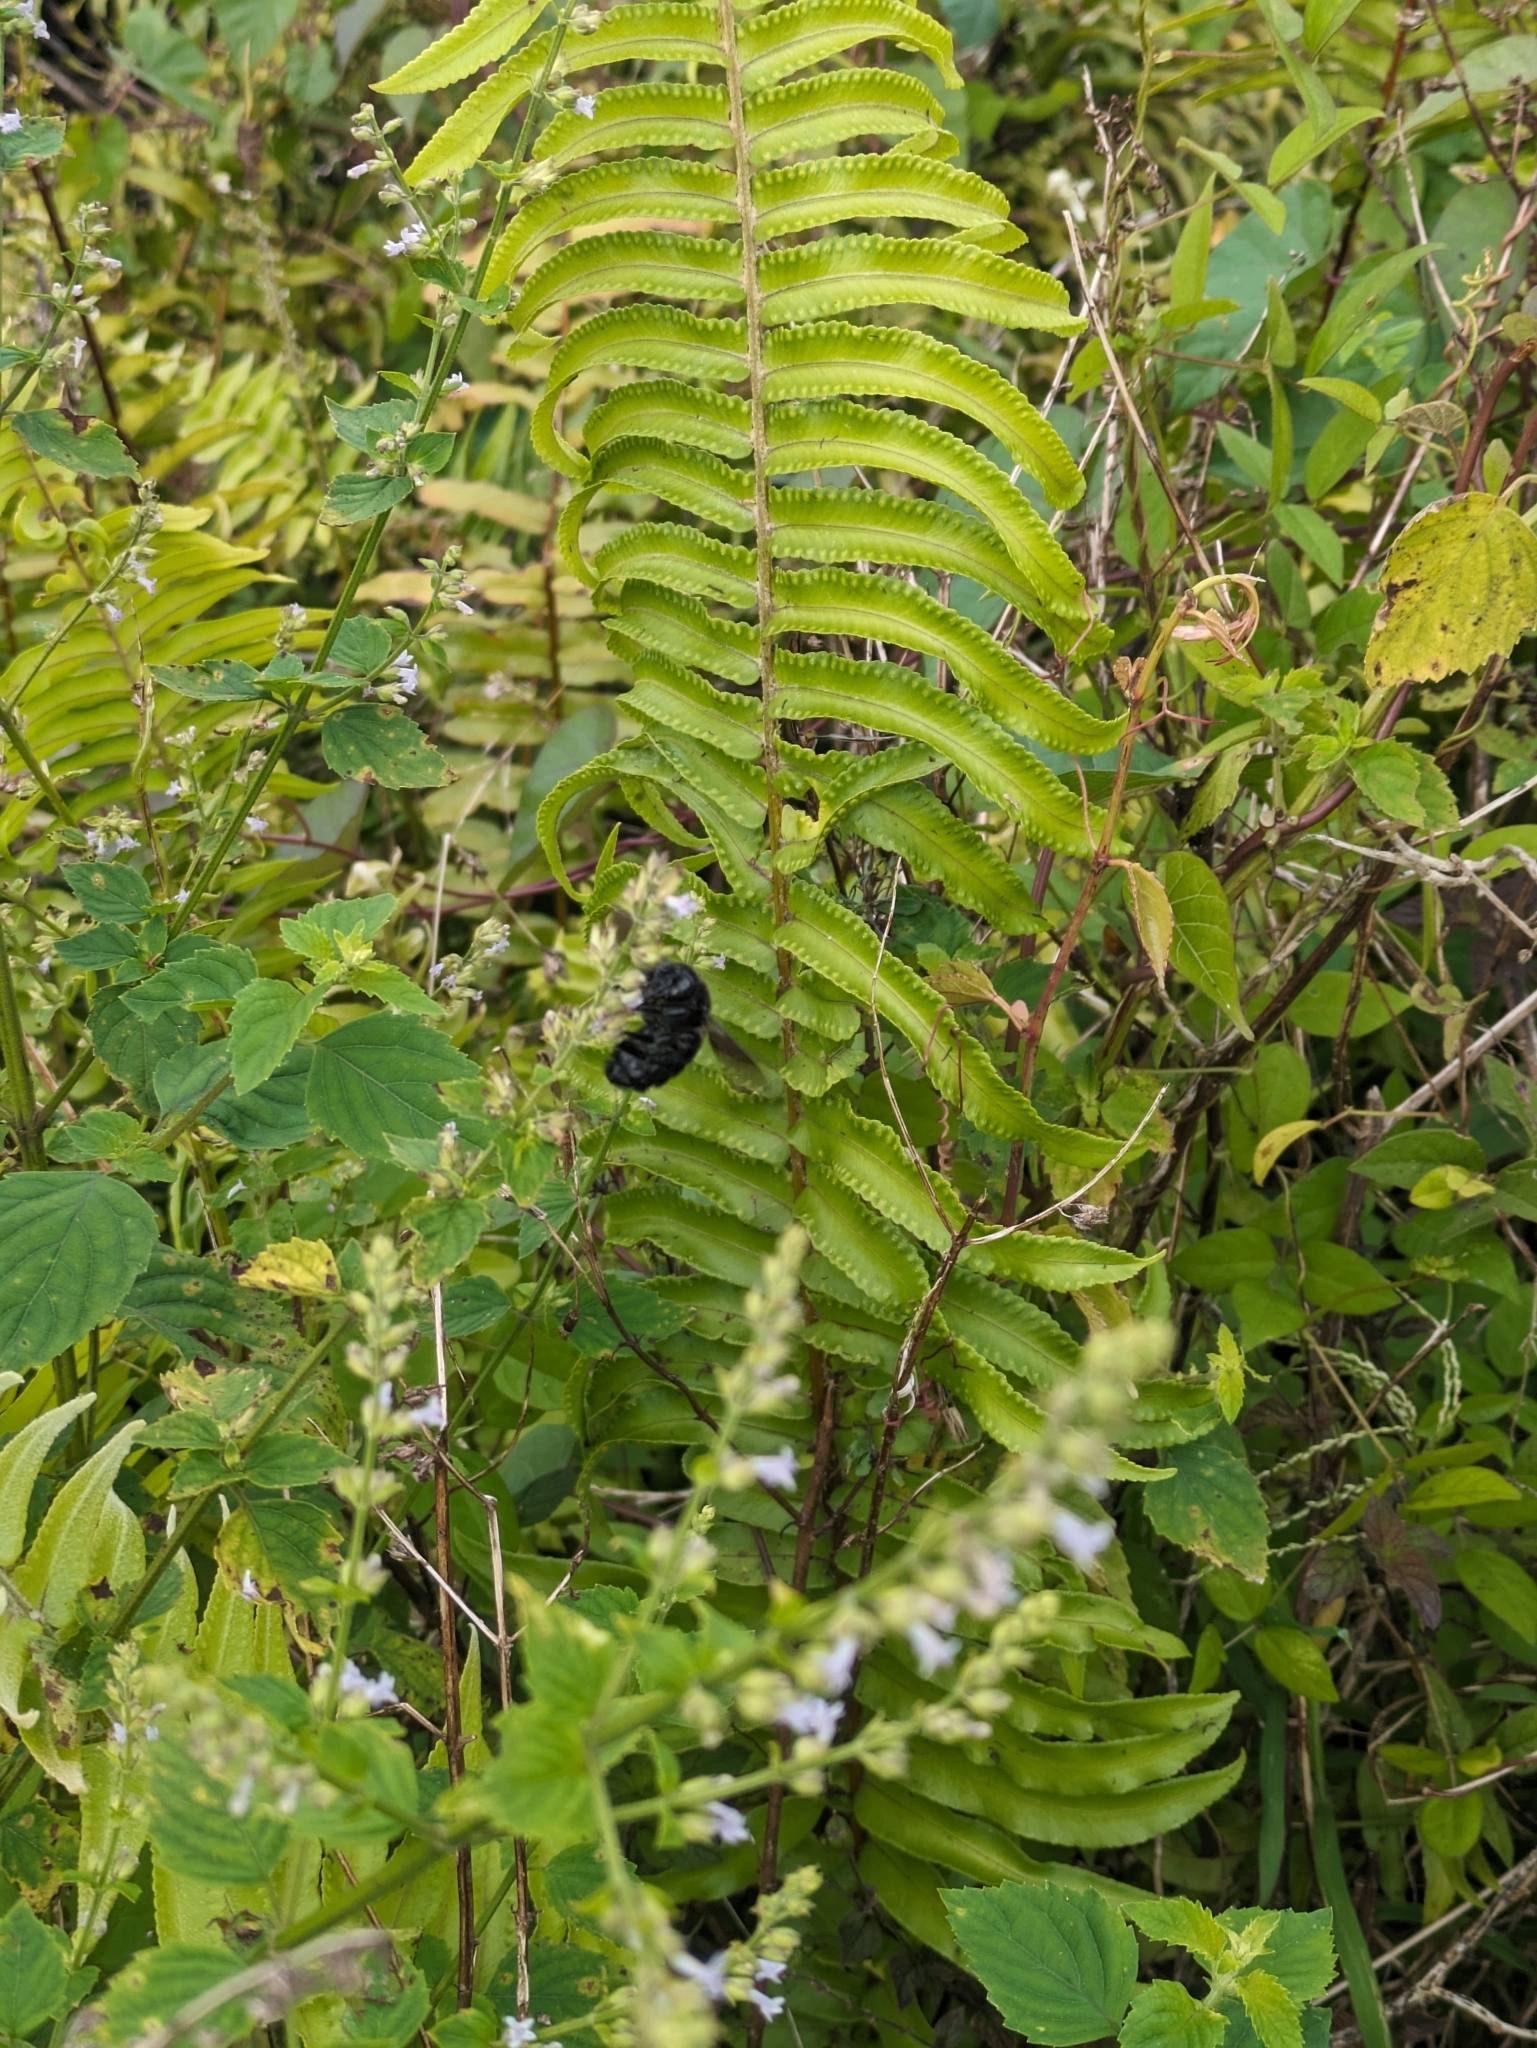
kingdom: Animalia
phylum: Arthropoda
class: Insecta
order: Hymenoptera
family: Apidae
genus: Xylocopa
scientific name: Xylocopa darwini
